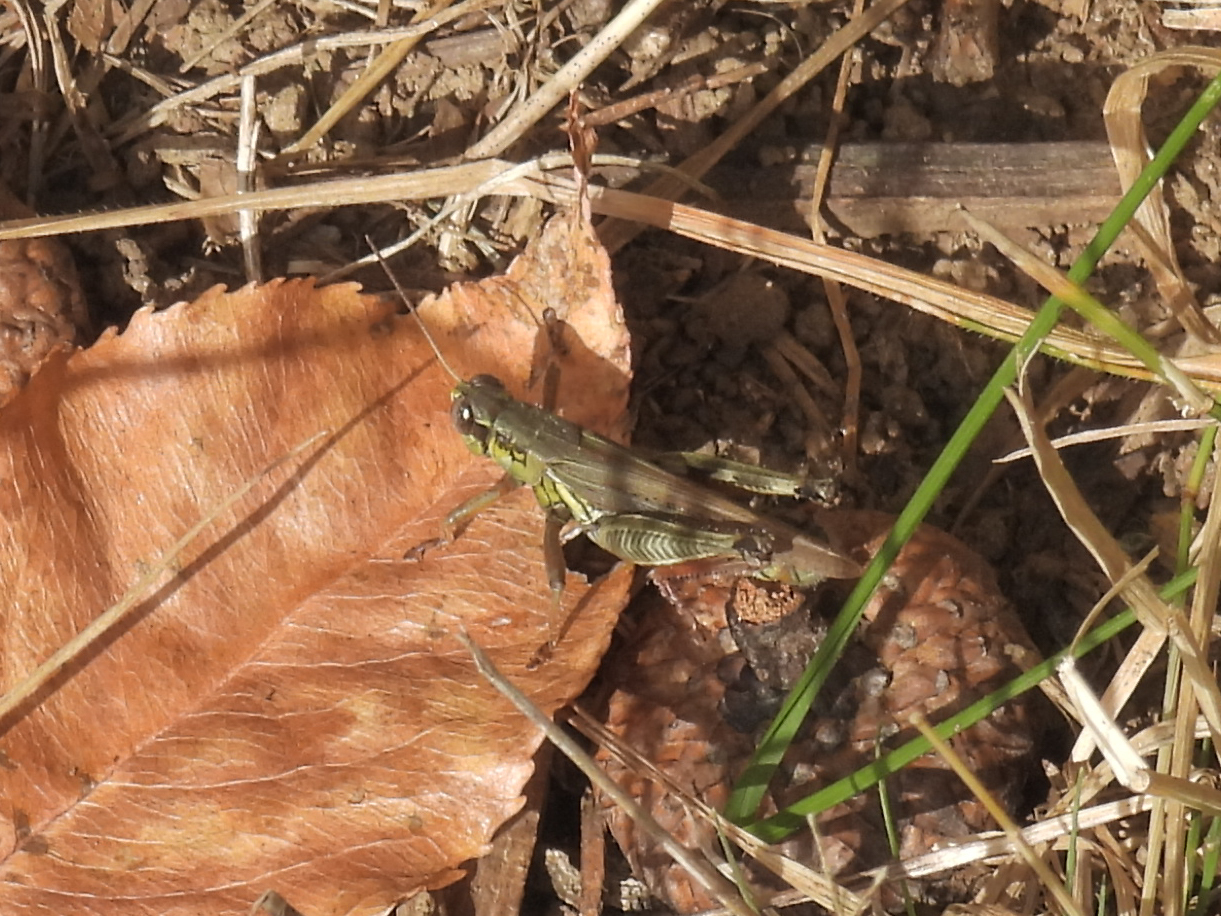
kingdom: Animalia
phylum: Arthropoda
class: Insecta
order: Orthoptera
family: Acrididae
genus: Melanoplus
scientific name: Melanoplus femurrubrum
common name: Red-legged grasshopper
